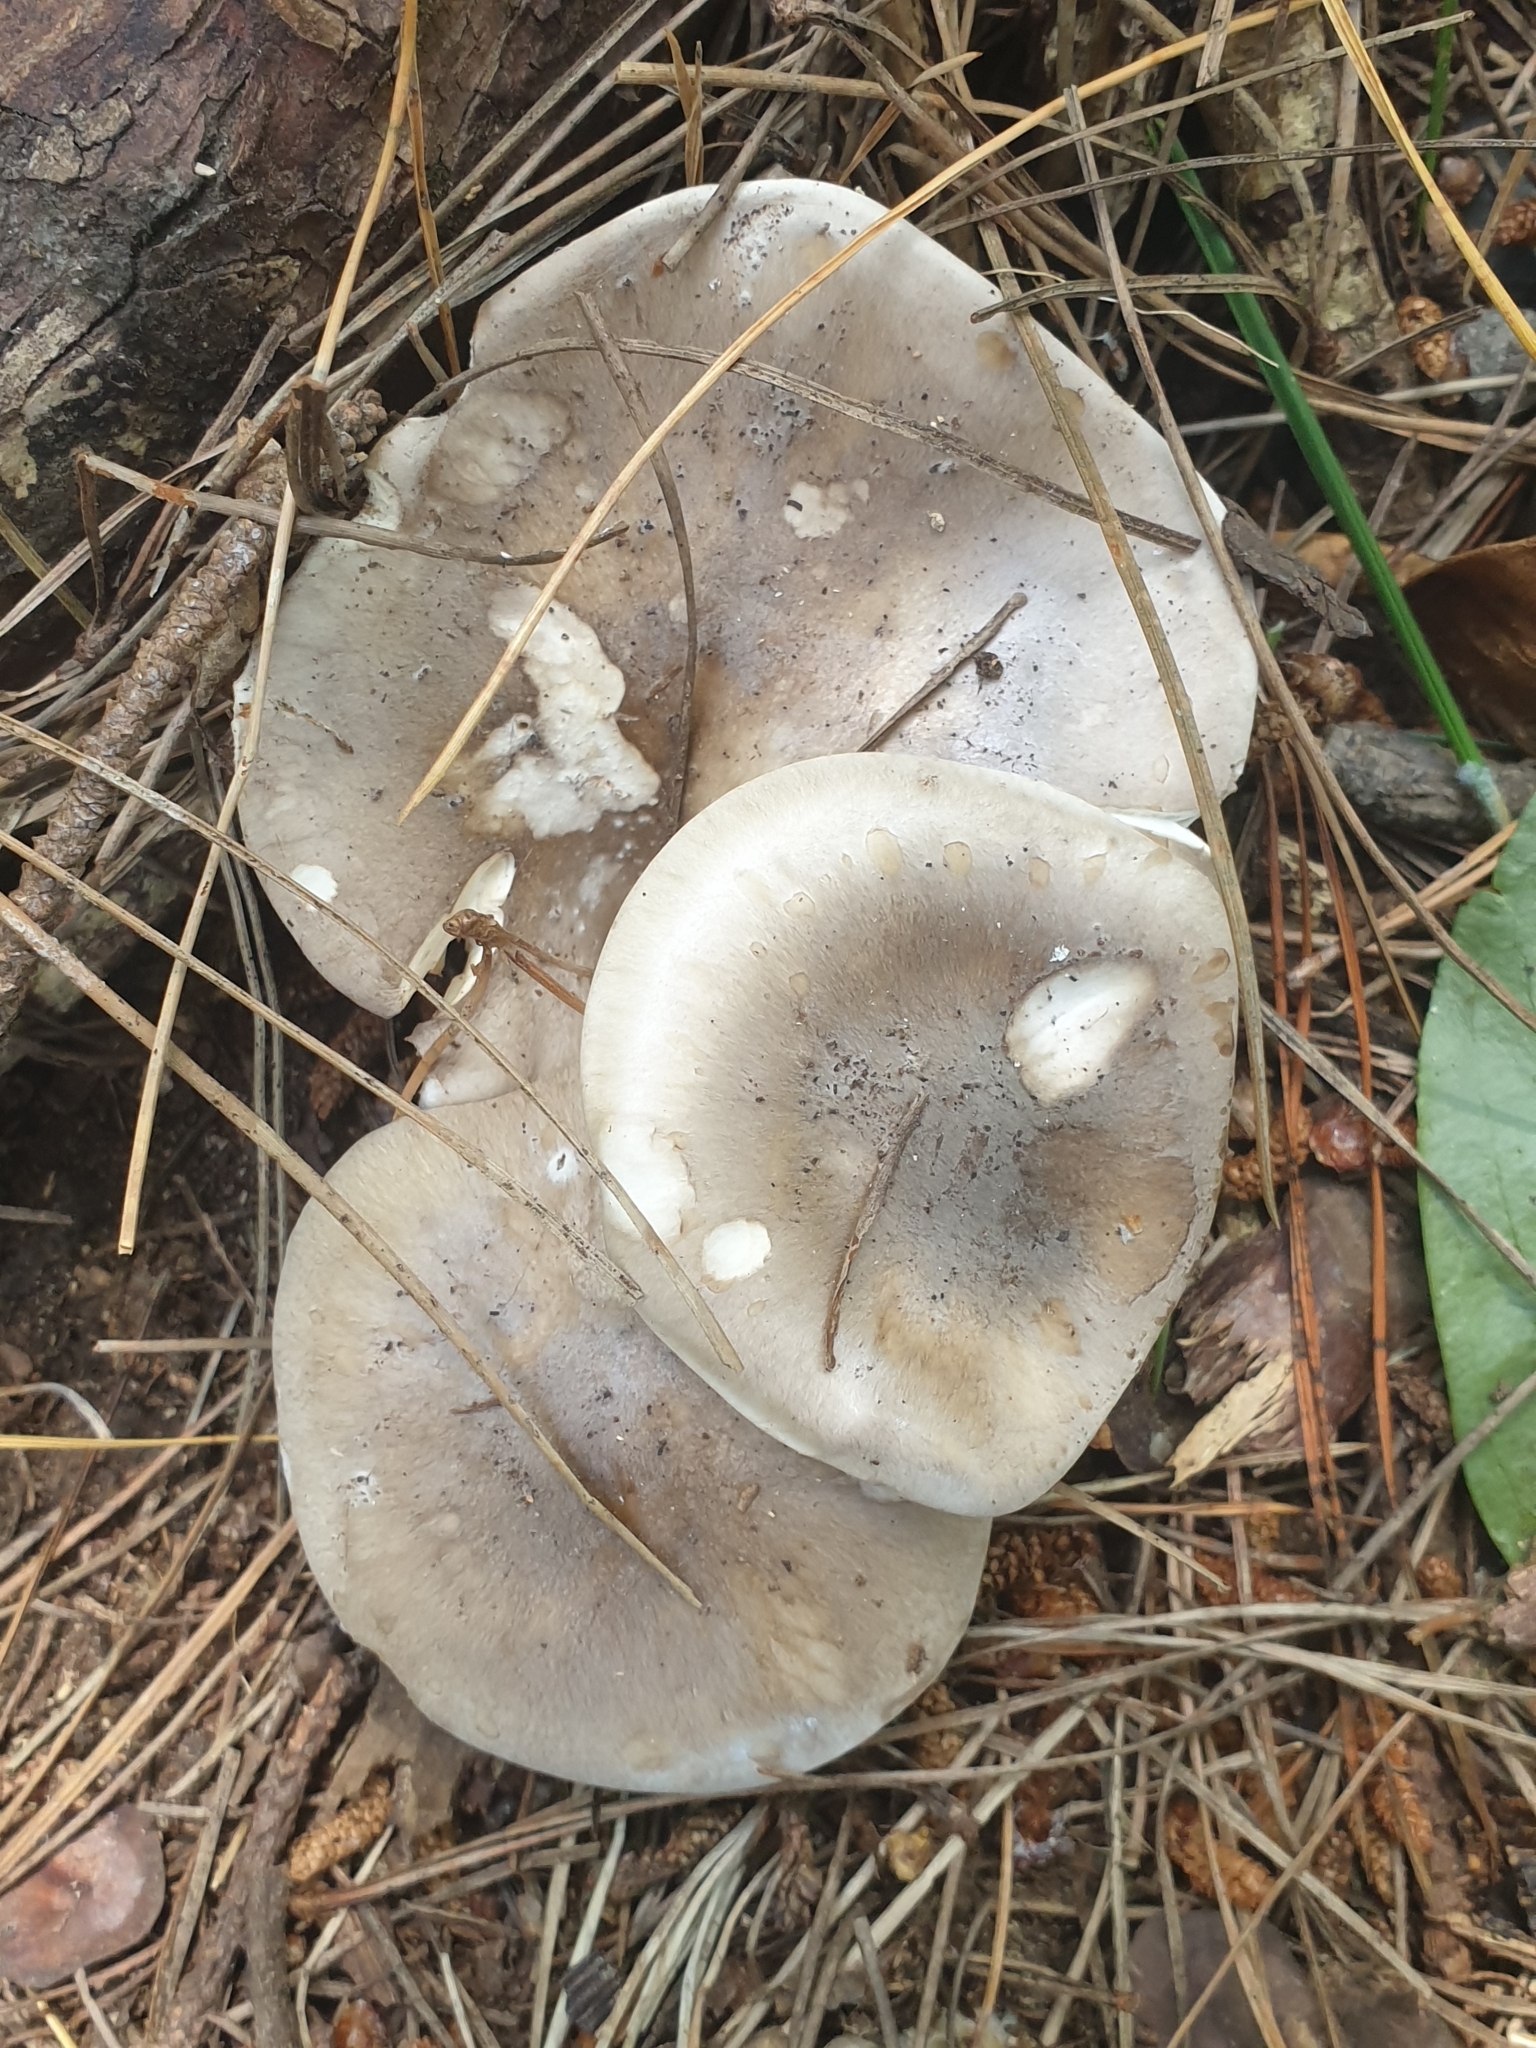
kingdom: Fungi
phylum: Basidiomycota
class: Agaricomycetes
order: Agaricales
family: Tricholomataceae
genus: Clitocybe
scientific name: Clitocybe nebularis
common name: Clouded agaric
